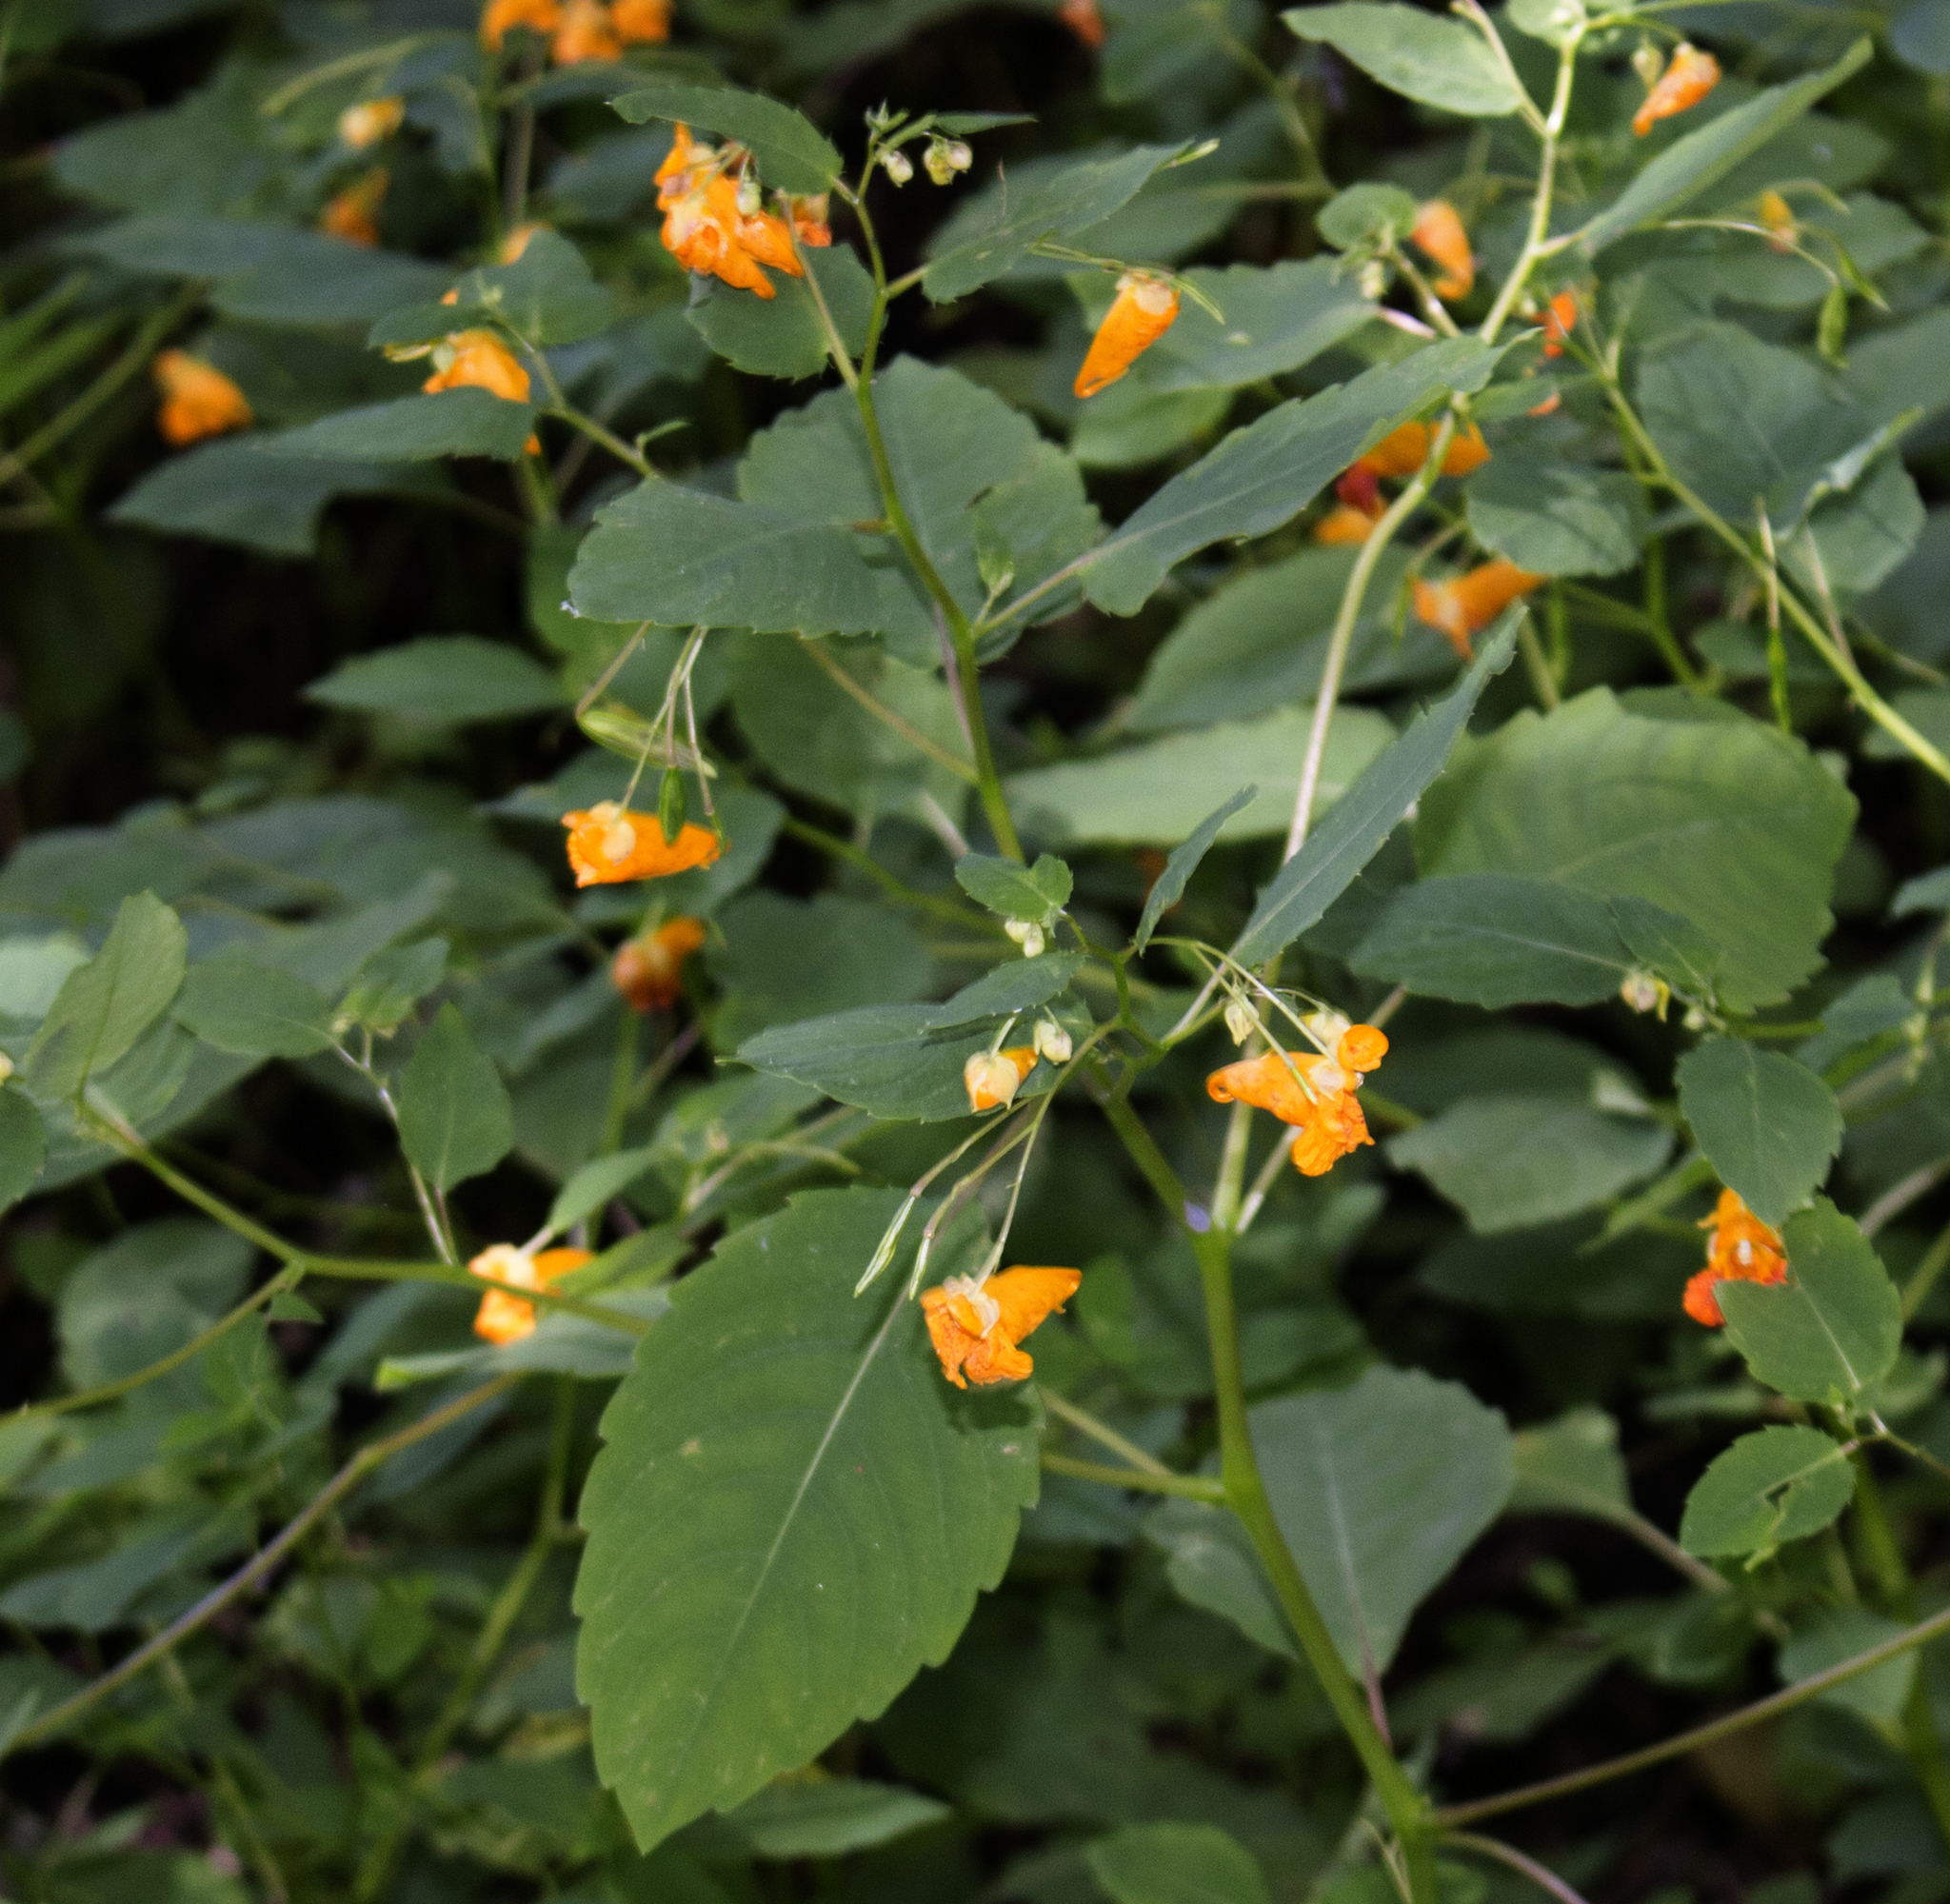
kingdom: Plantae
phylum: Tracheophyta
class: Magnoliopsida
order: Ericales
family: Balsaminaceae
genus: Impatiens
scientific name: Impatiens capensis
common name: Orange balsam
